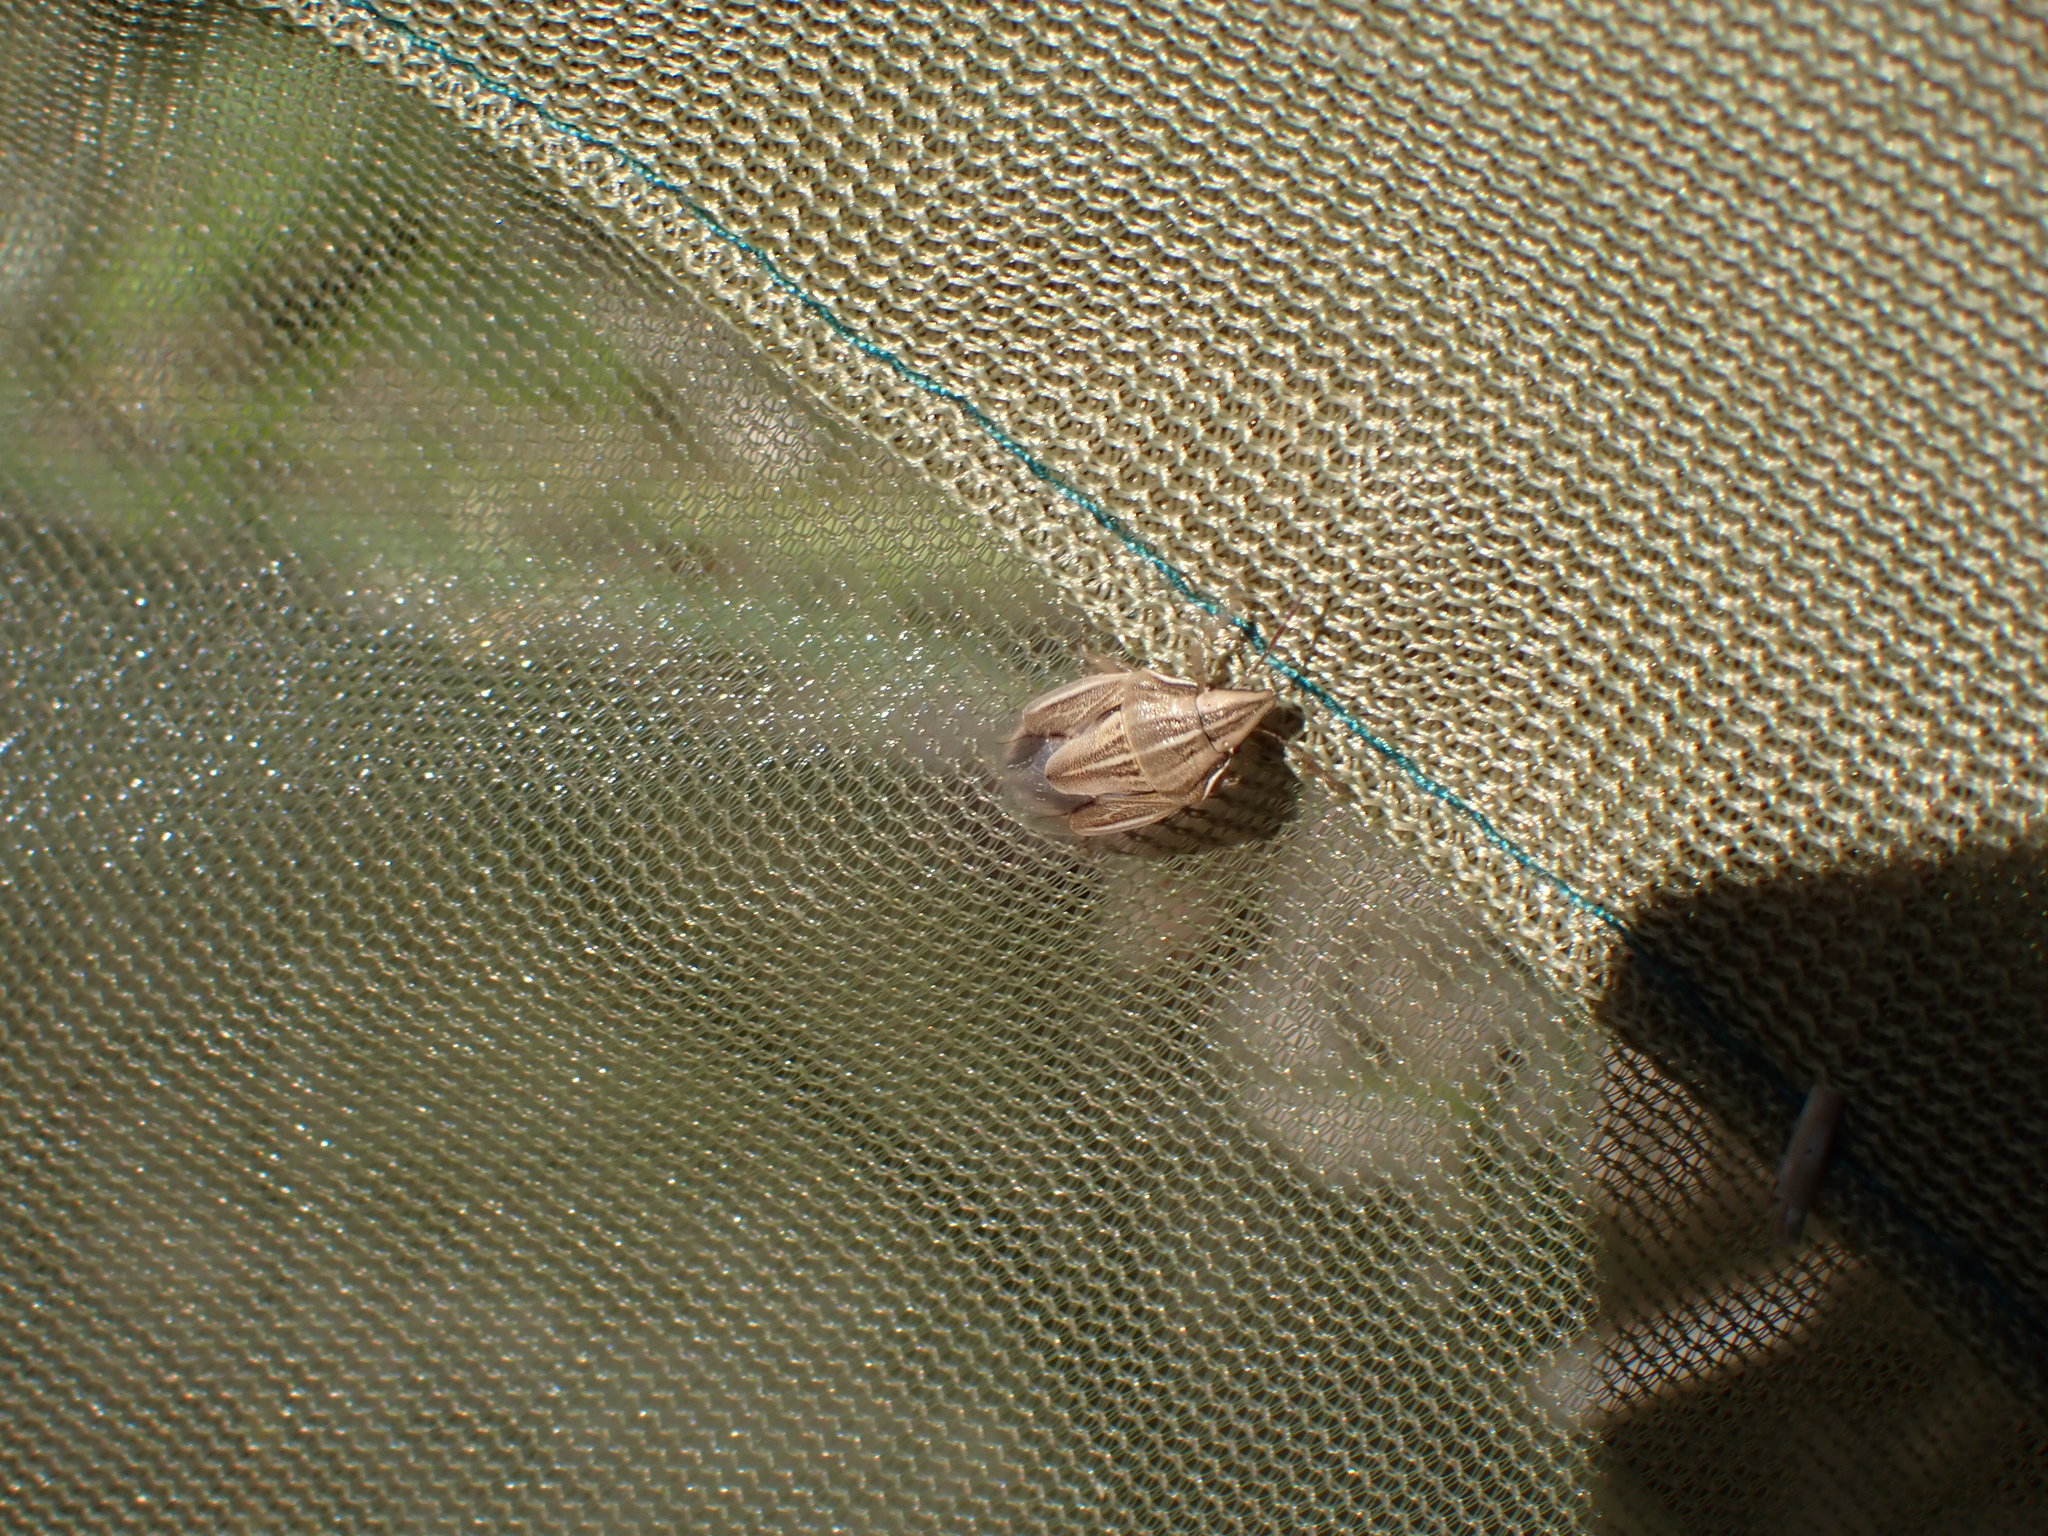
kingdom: Animalia
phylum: Arthropoda
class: Insecta
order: Hemiptera
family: Pentatomidae
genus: Aelia
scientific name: Aelia acuminata
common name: Bishop's mitre
